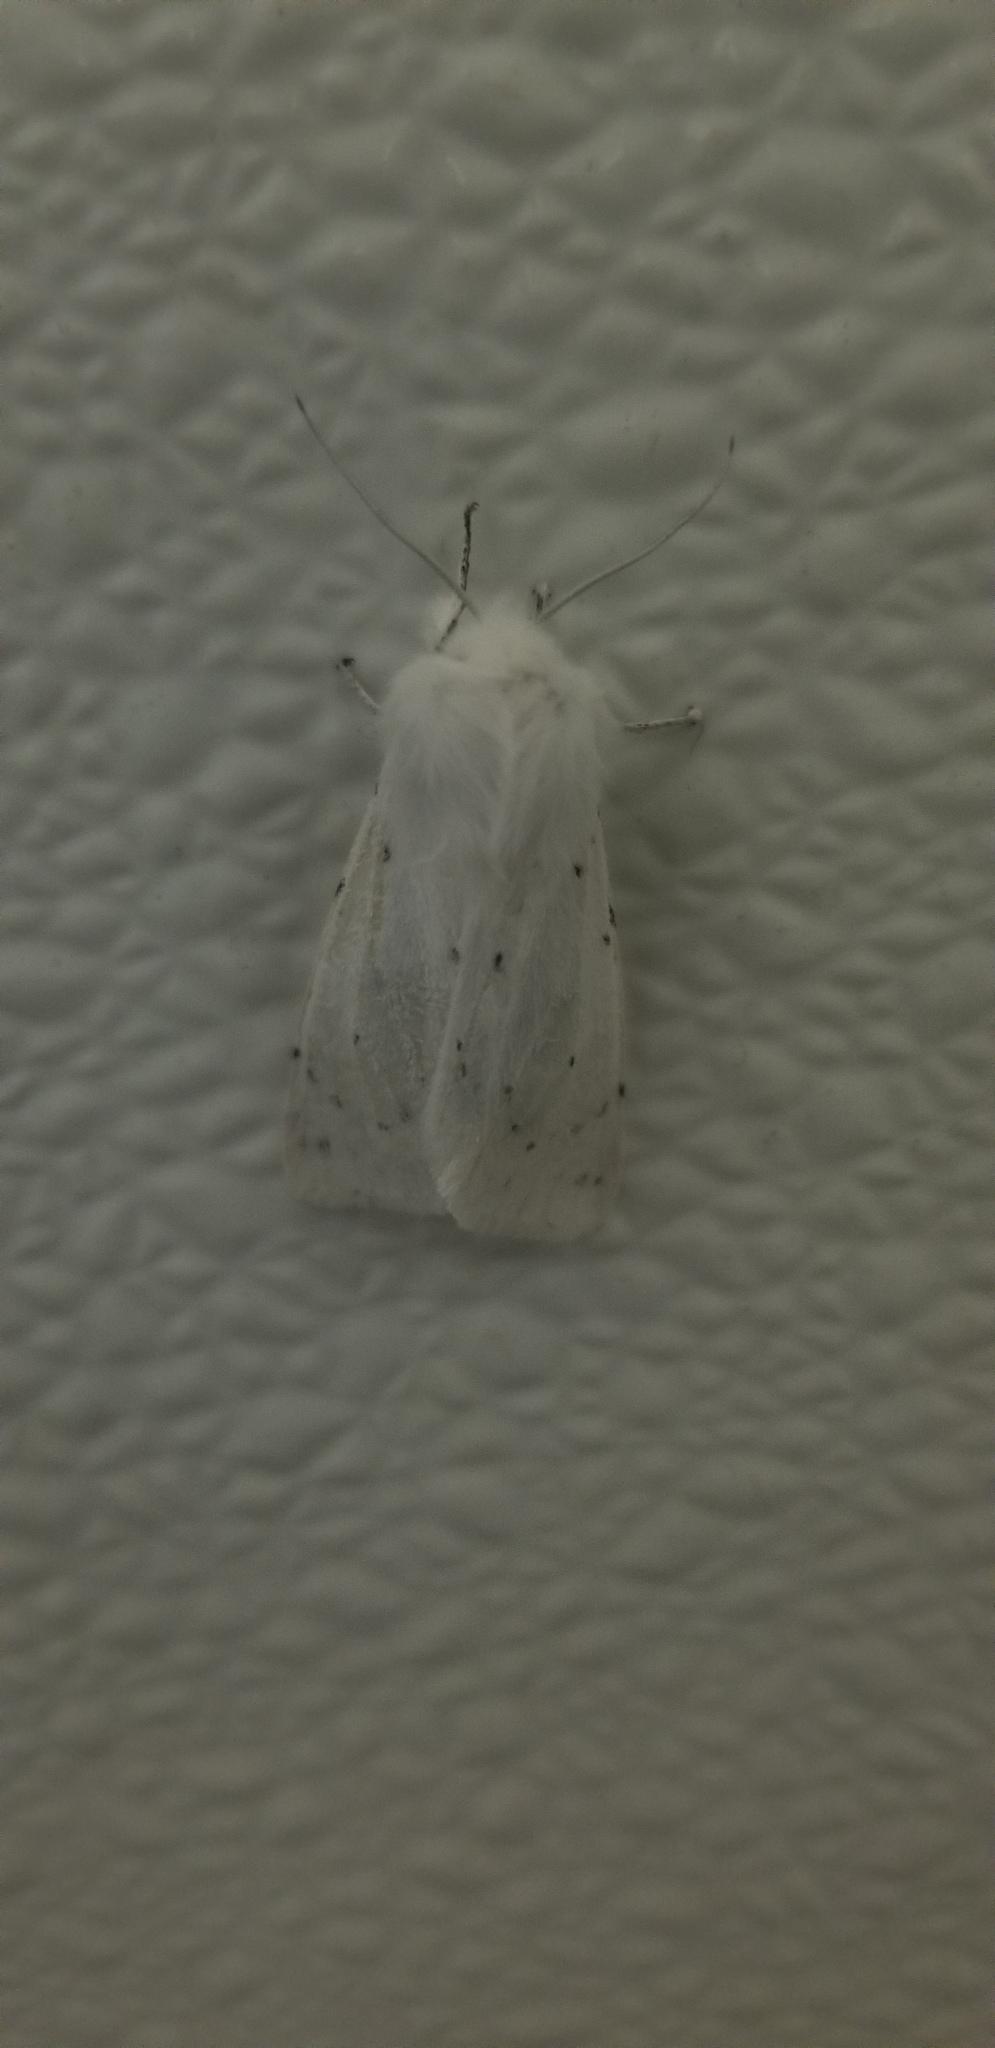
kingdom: Animalia
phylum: Arthropoda
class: Insecta
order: Lepidoptera
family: Erebidae
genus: Spilosoma
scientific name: Spilosoma vestalis
